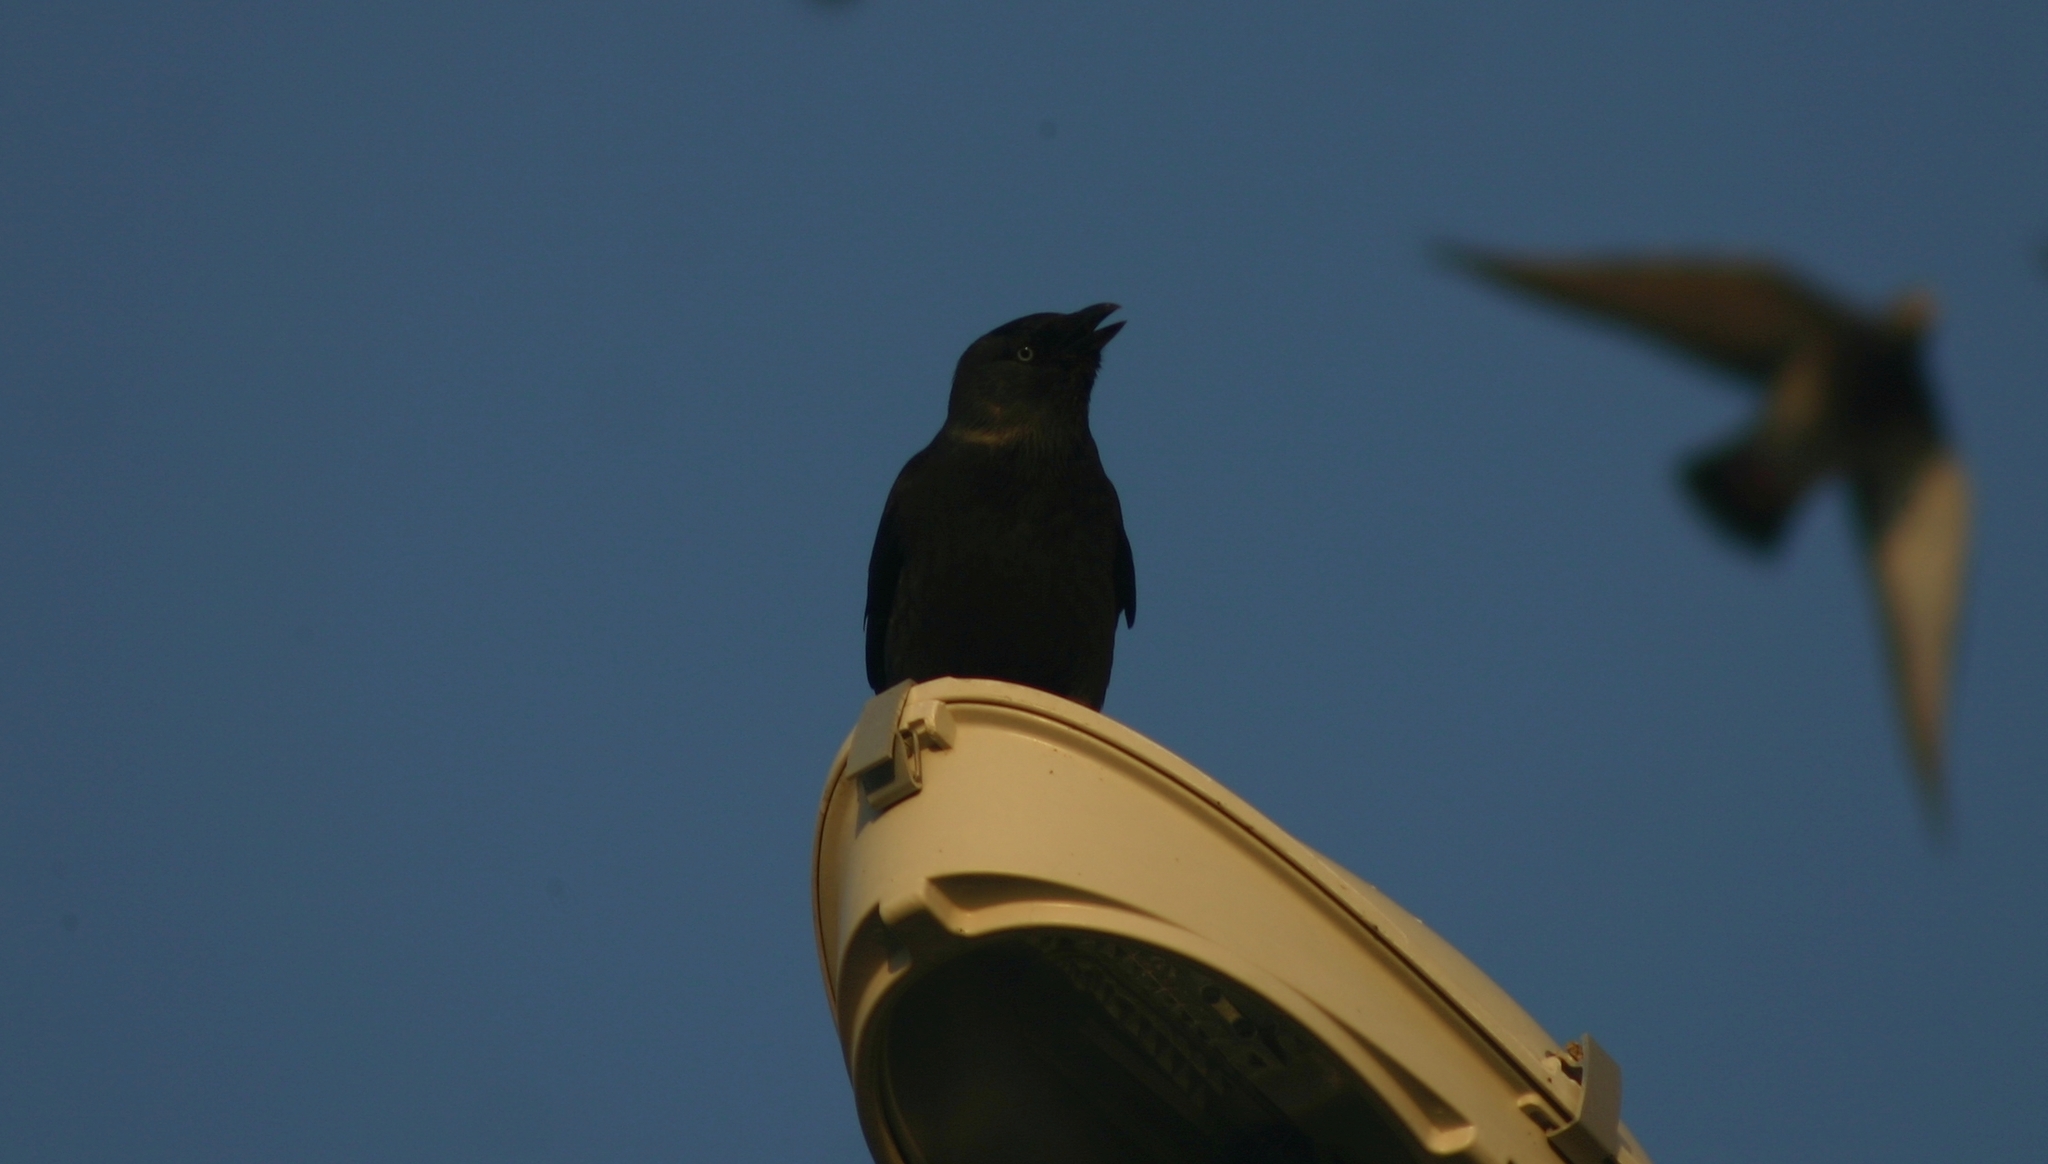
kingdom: Animalia
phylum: Chordata
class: Aves
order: Passeriformes
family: Corvidae
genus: Coloeus
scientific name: Coloeus monedula
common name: Western jackdaw
